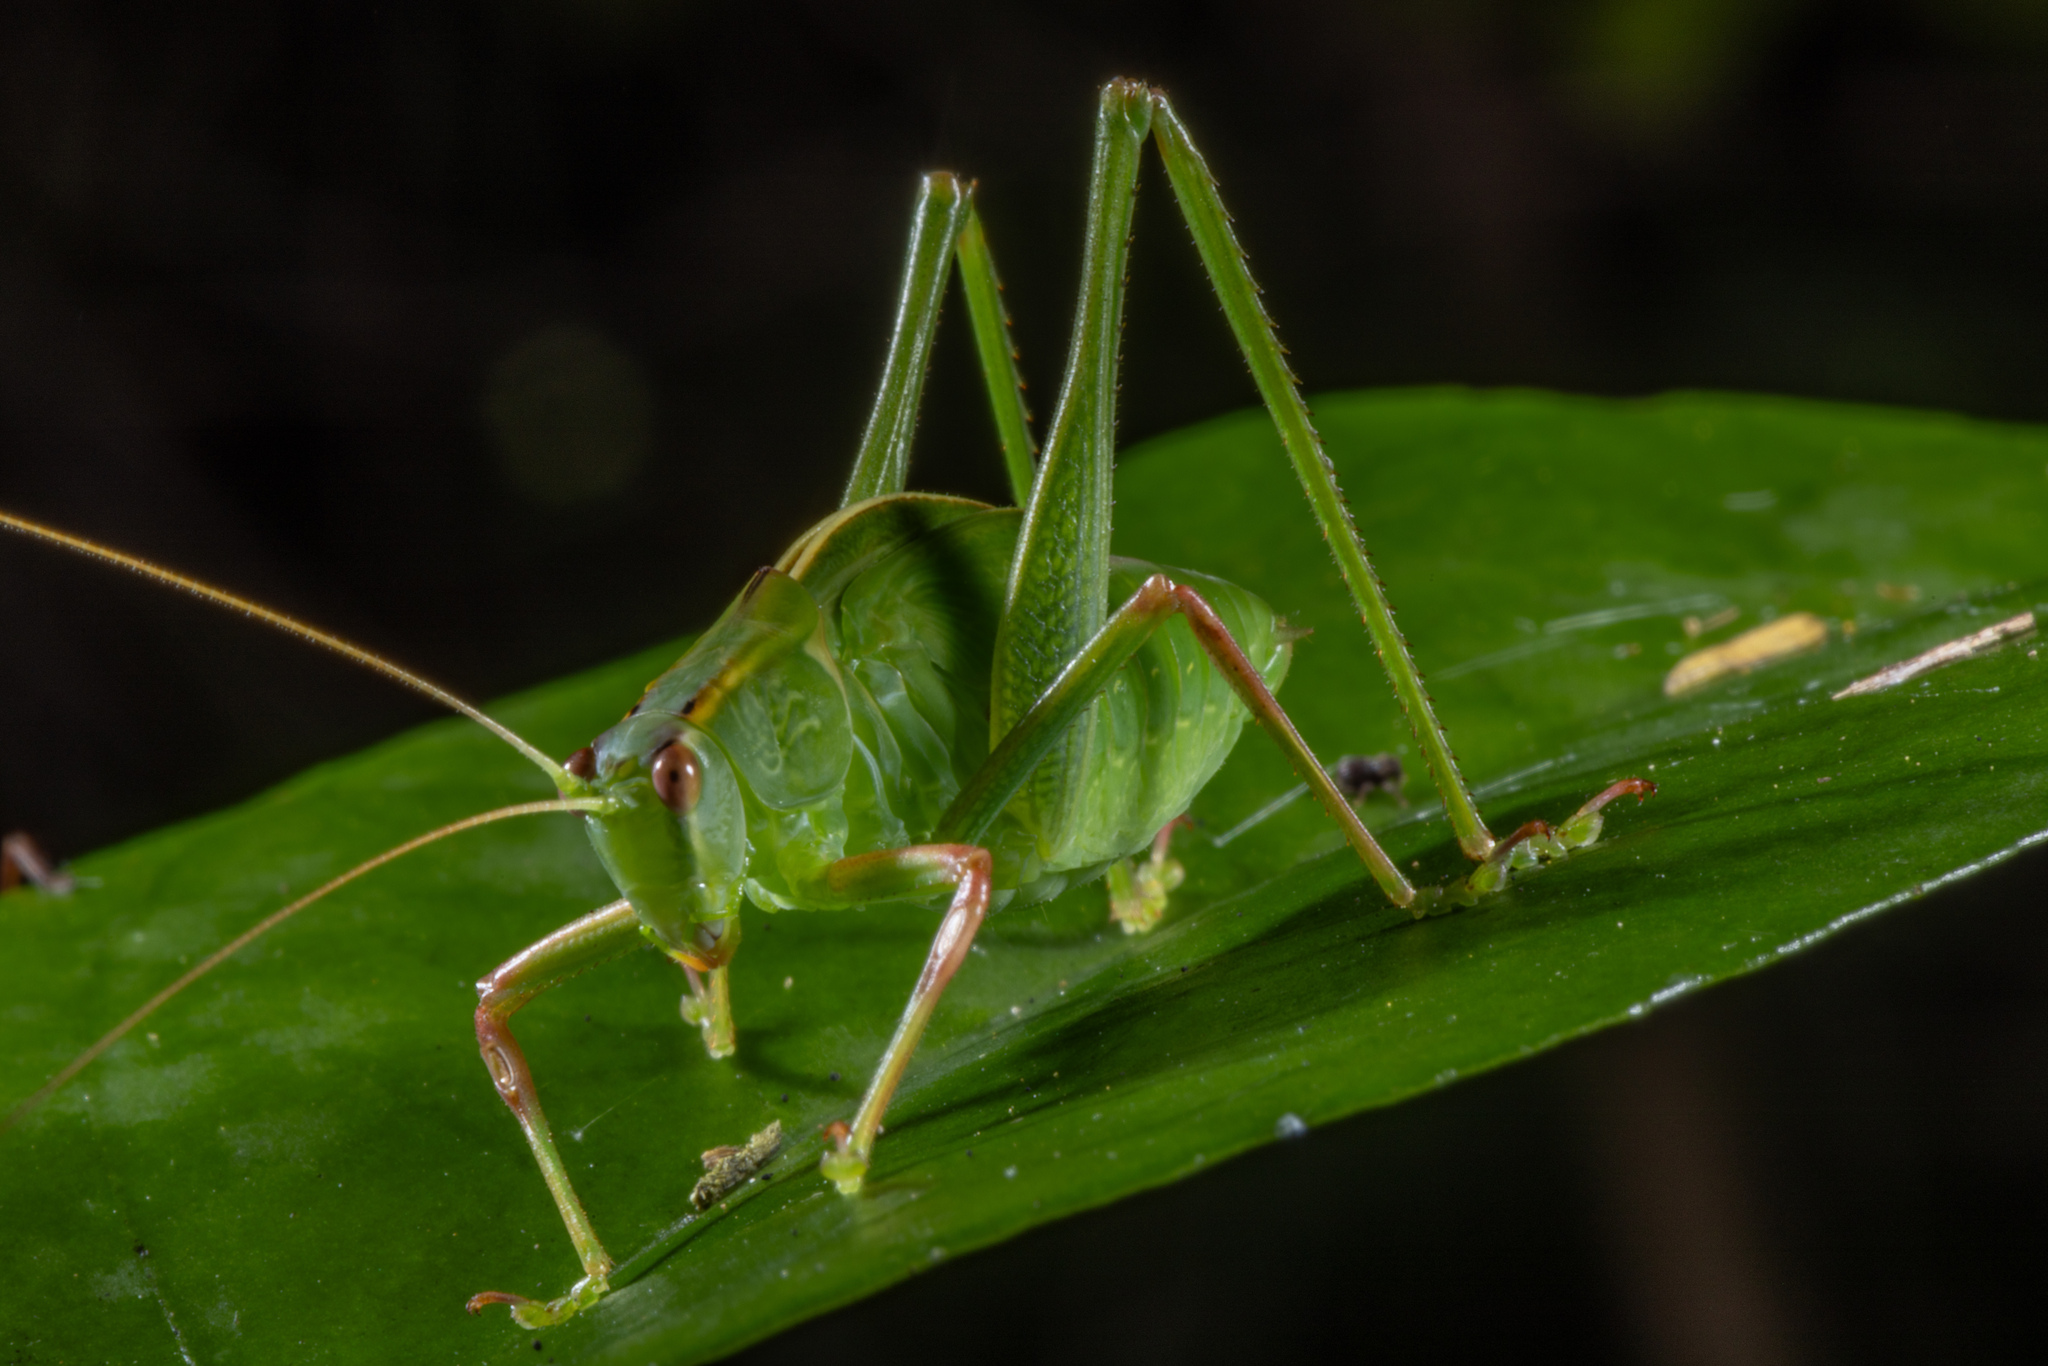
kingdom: Animalia
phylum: Arthropoda
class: Insecta
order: Orthoptera
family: Tettigoniidae
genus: Caedicia
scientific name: Caedicia simplex
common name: Common garden katydid
